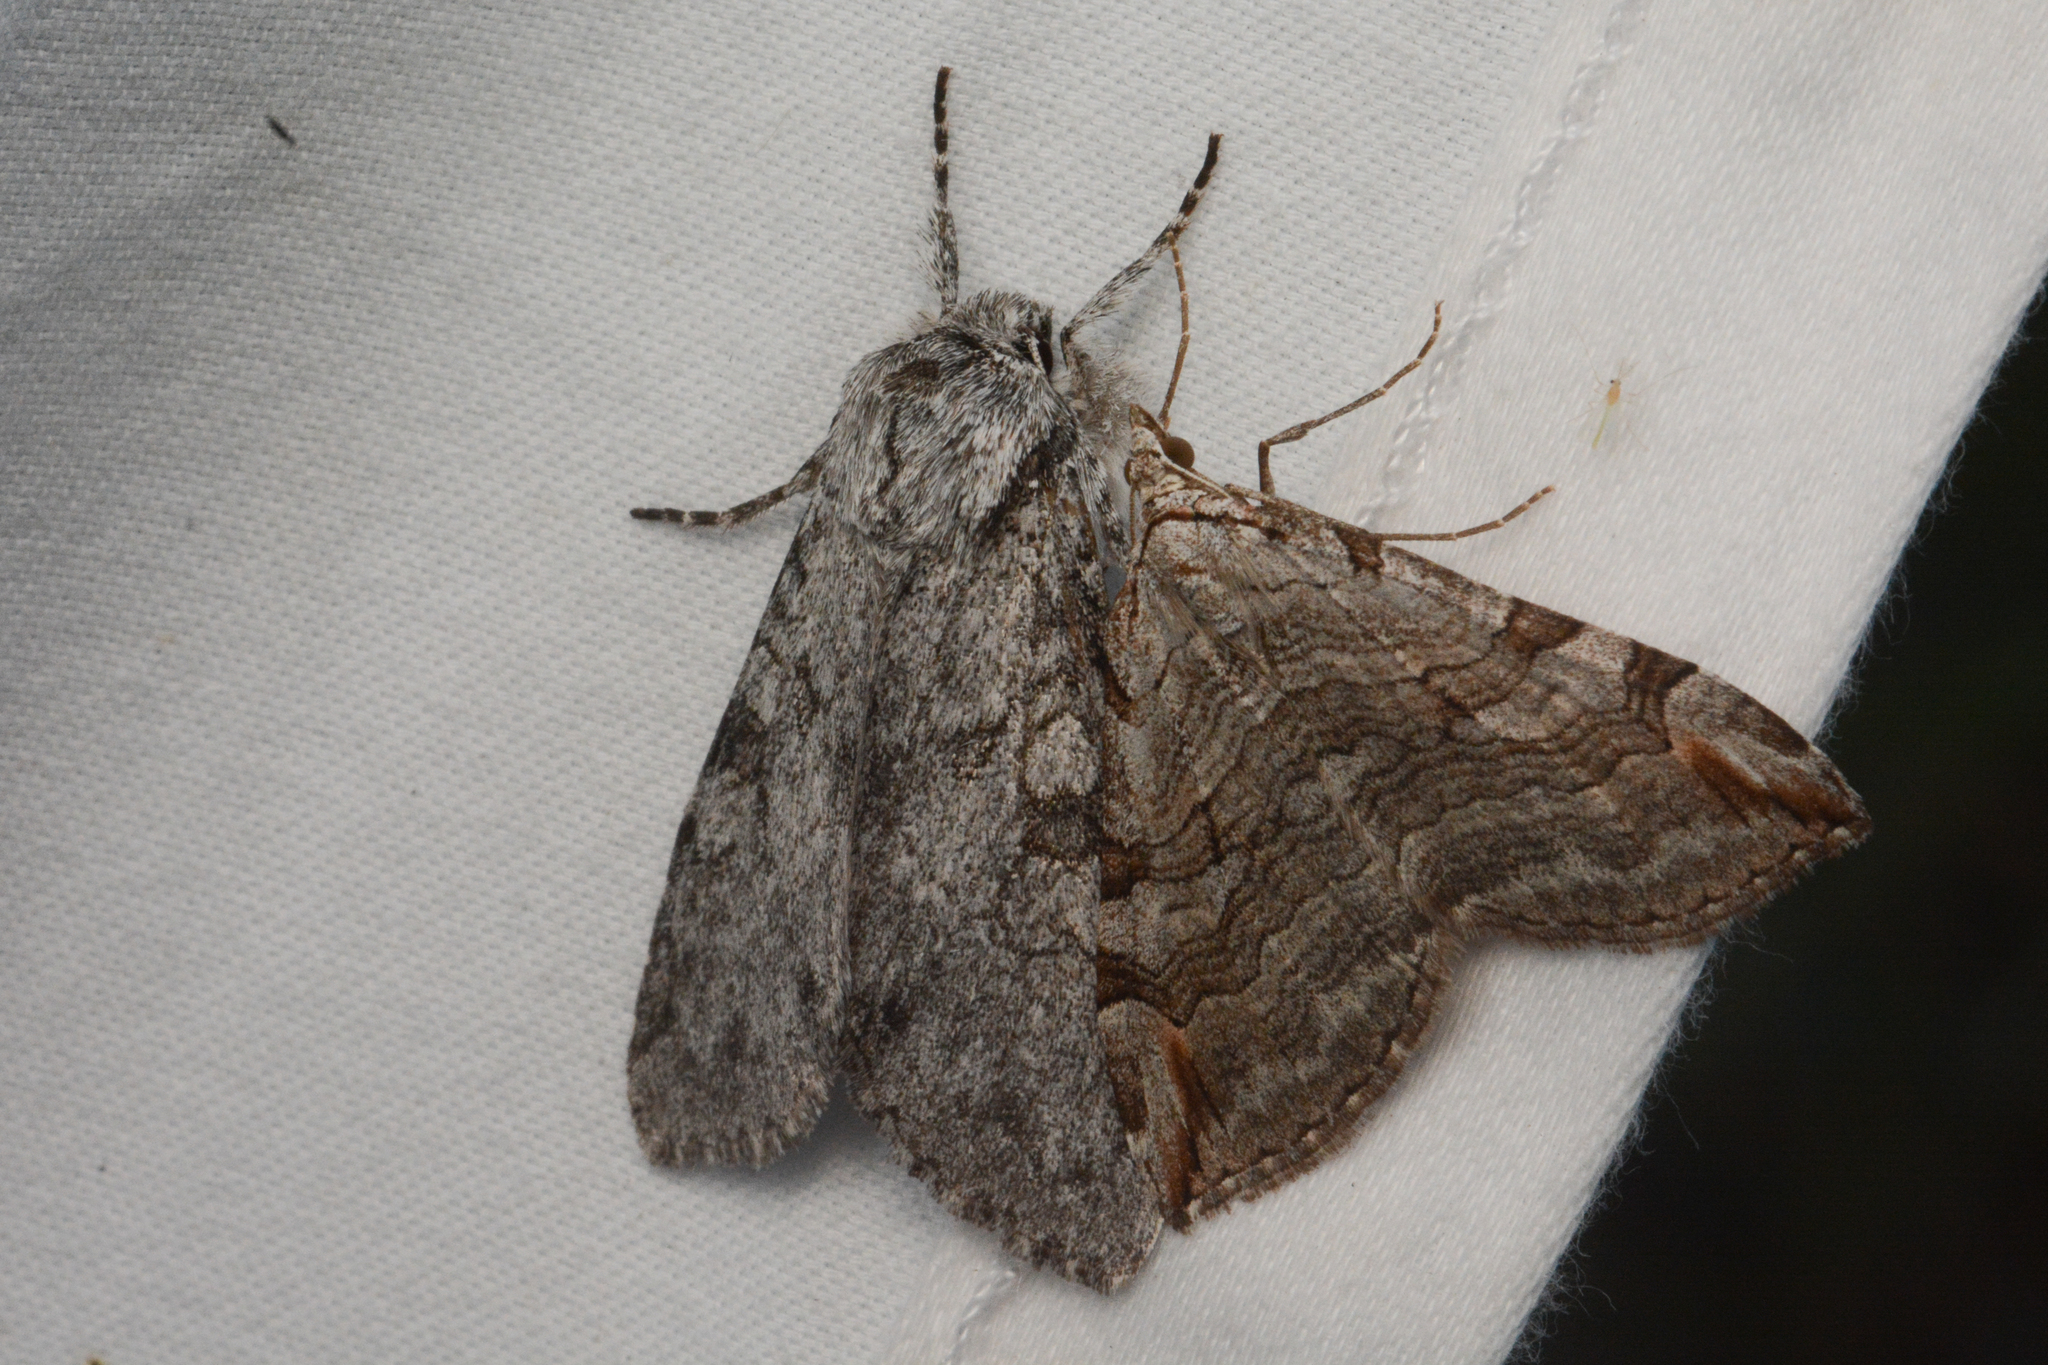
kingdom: Animalia
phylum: Arthropoda
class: Insecta
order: Lepidoptera
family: Geometridae
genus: Aplocera
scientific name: Aplocera plagiata
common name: Treble-bar
